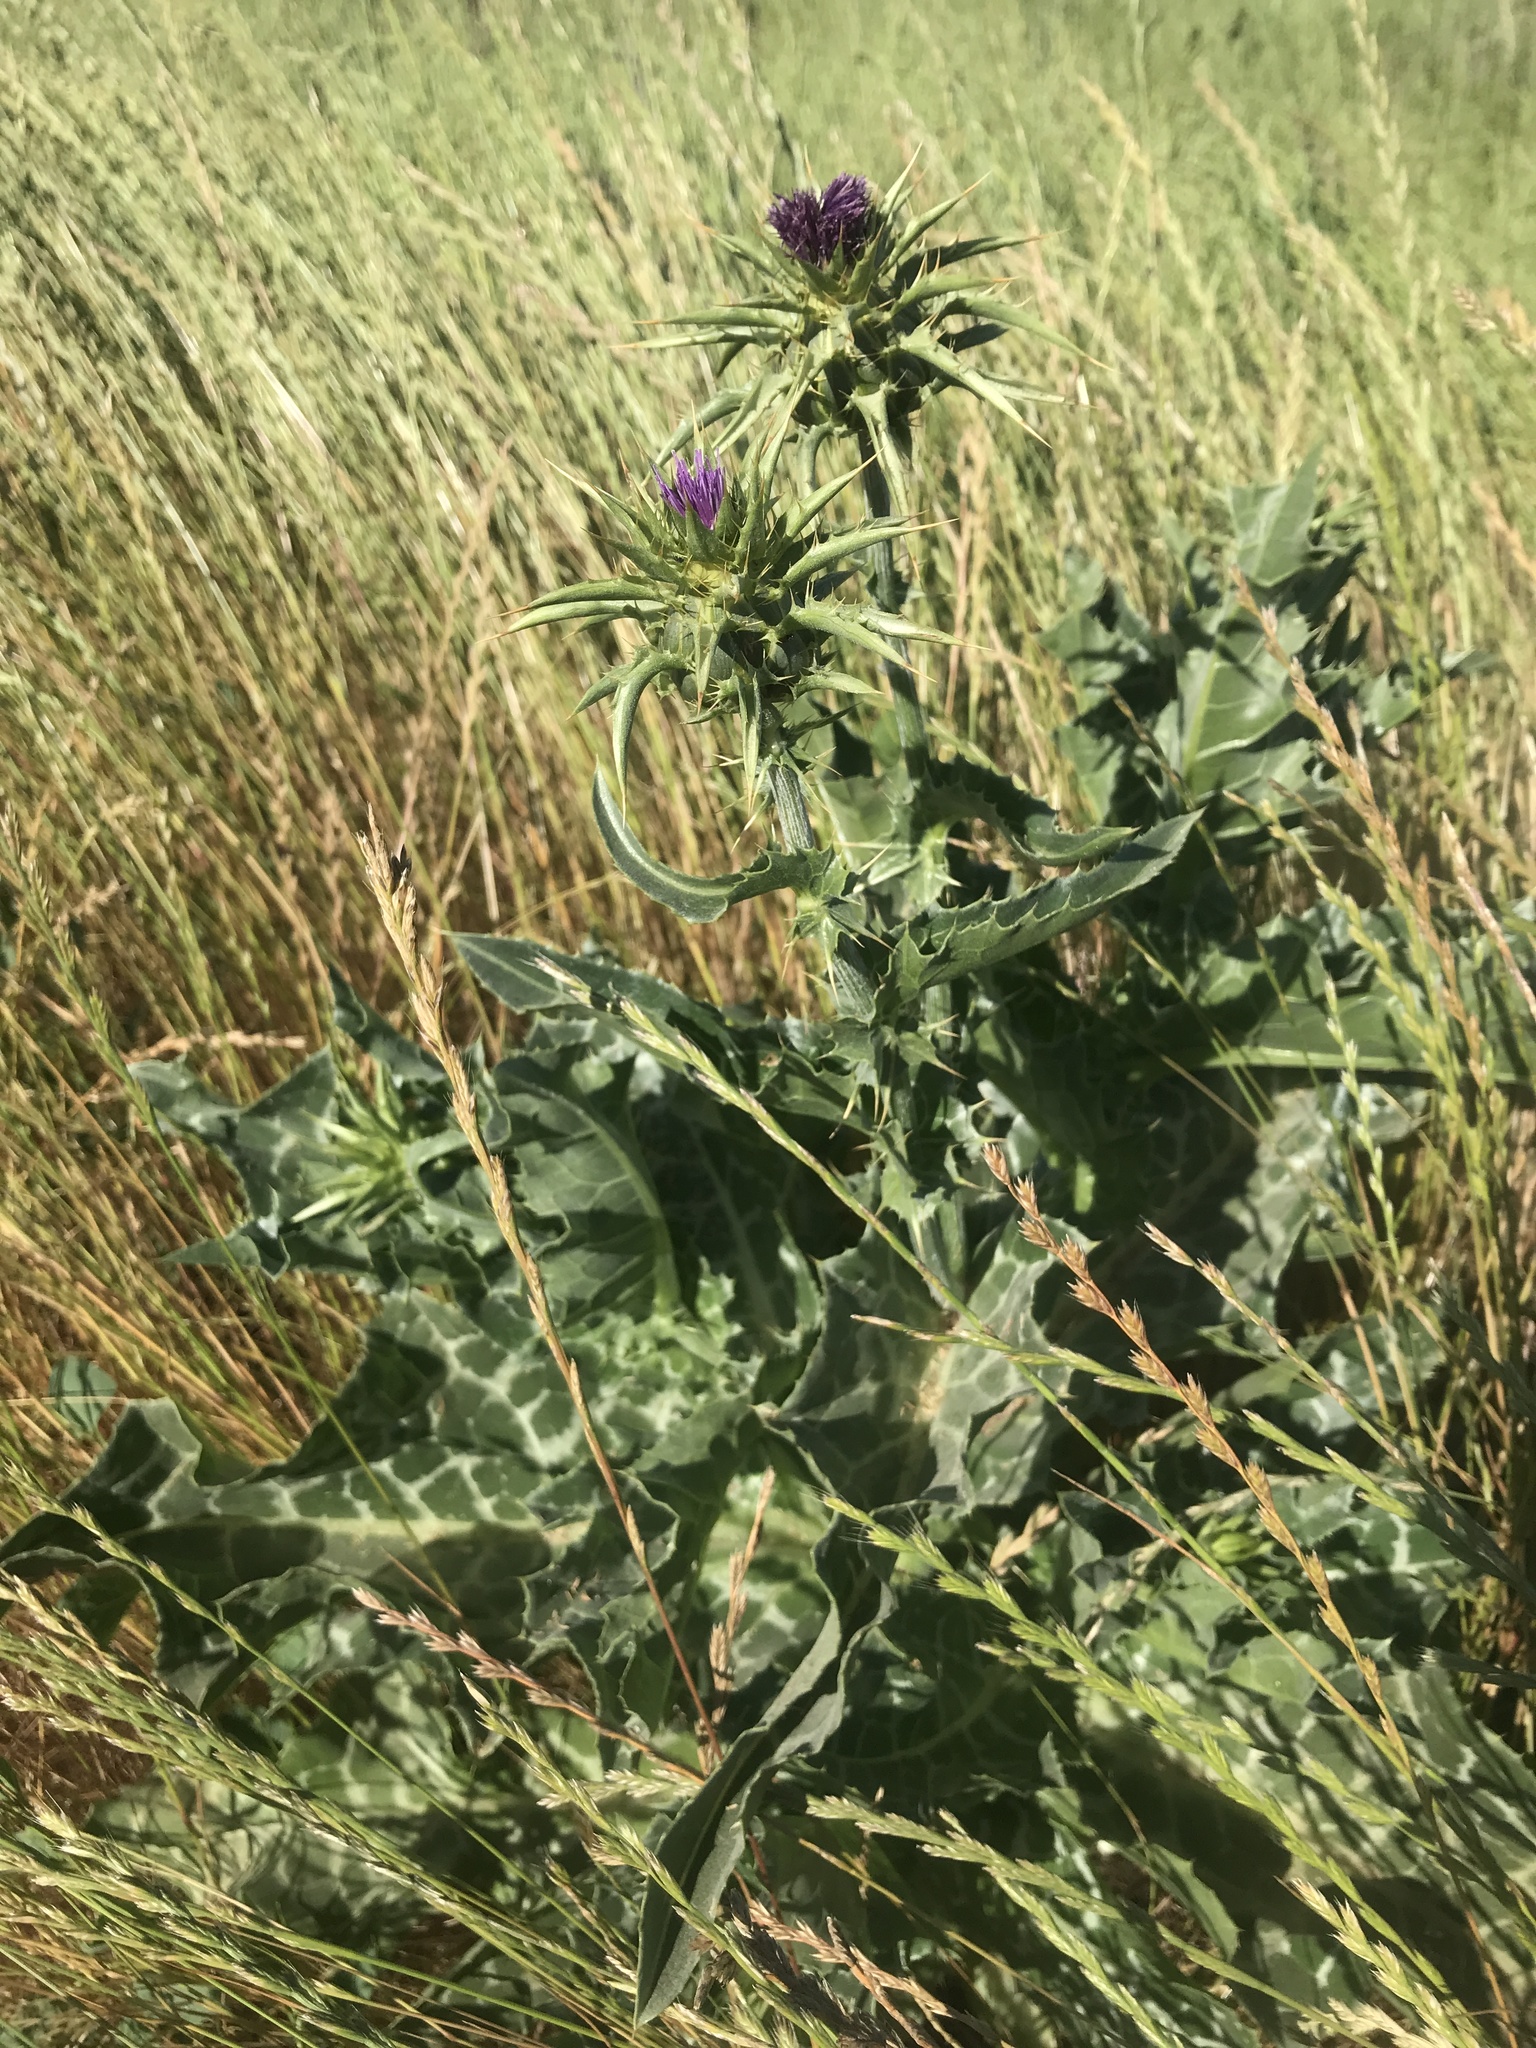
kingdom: Plantae
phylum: Tracheophyta
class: Magnoliopsida
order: Asterales
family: Asteraceae
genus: Silybum
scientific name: Silybum marianum
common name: Milk thistle
